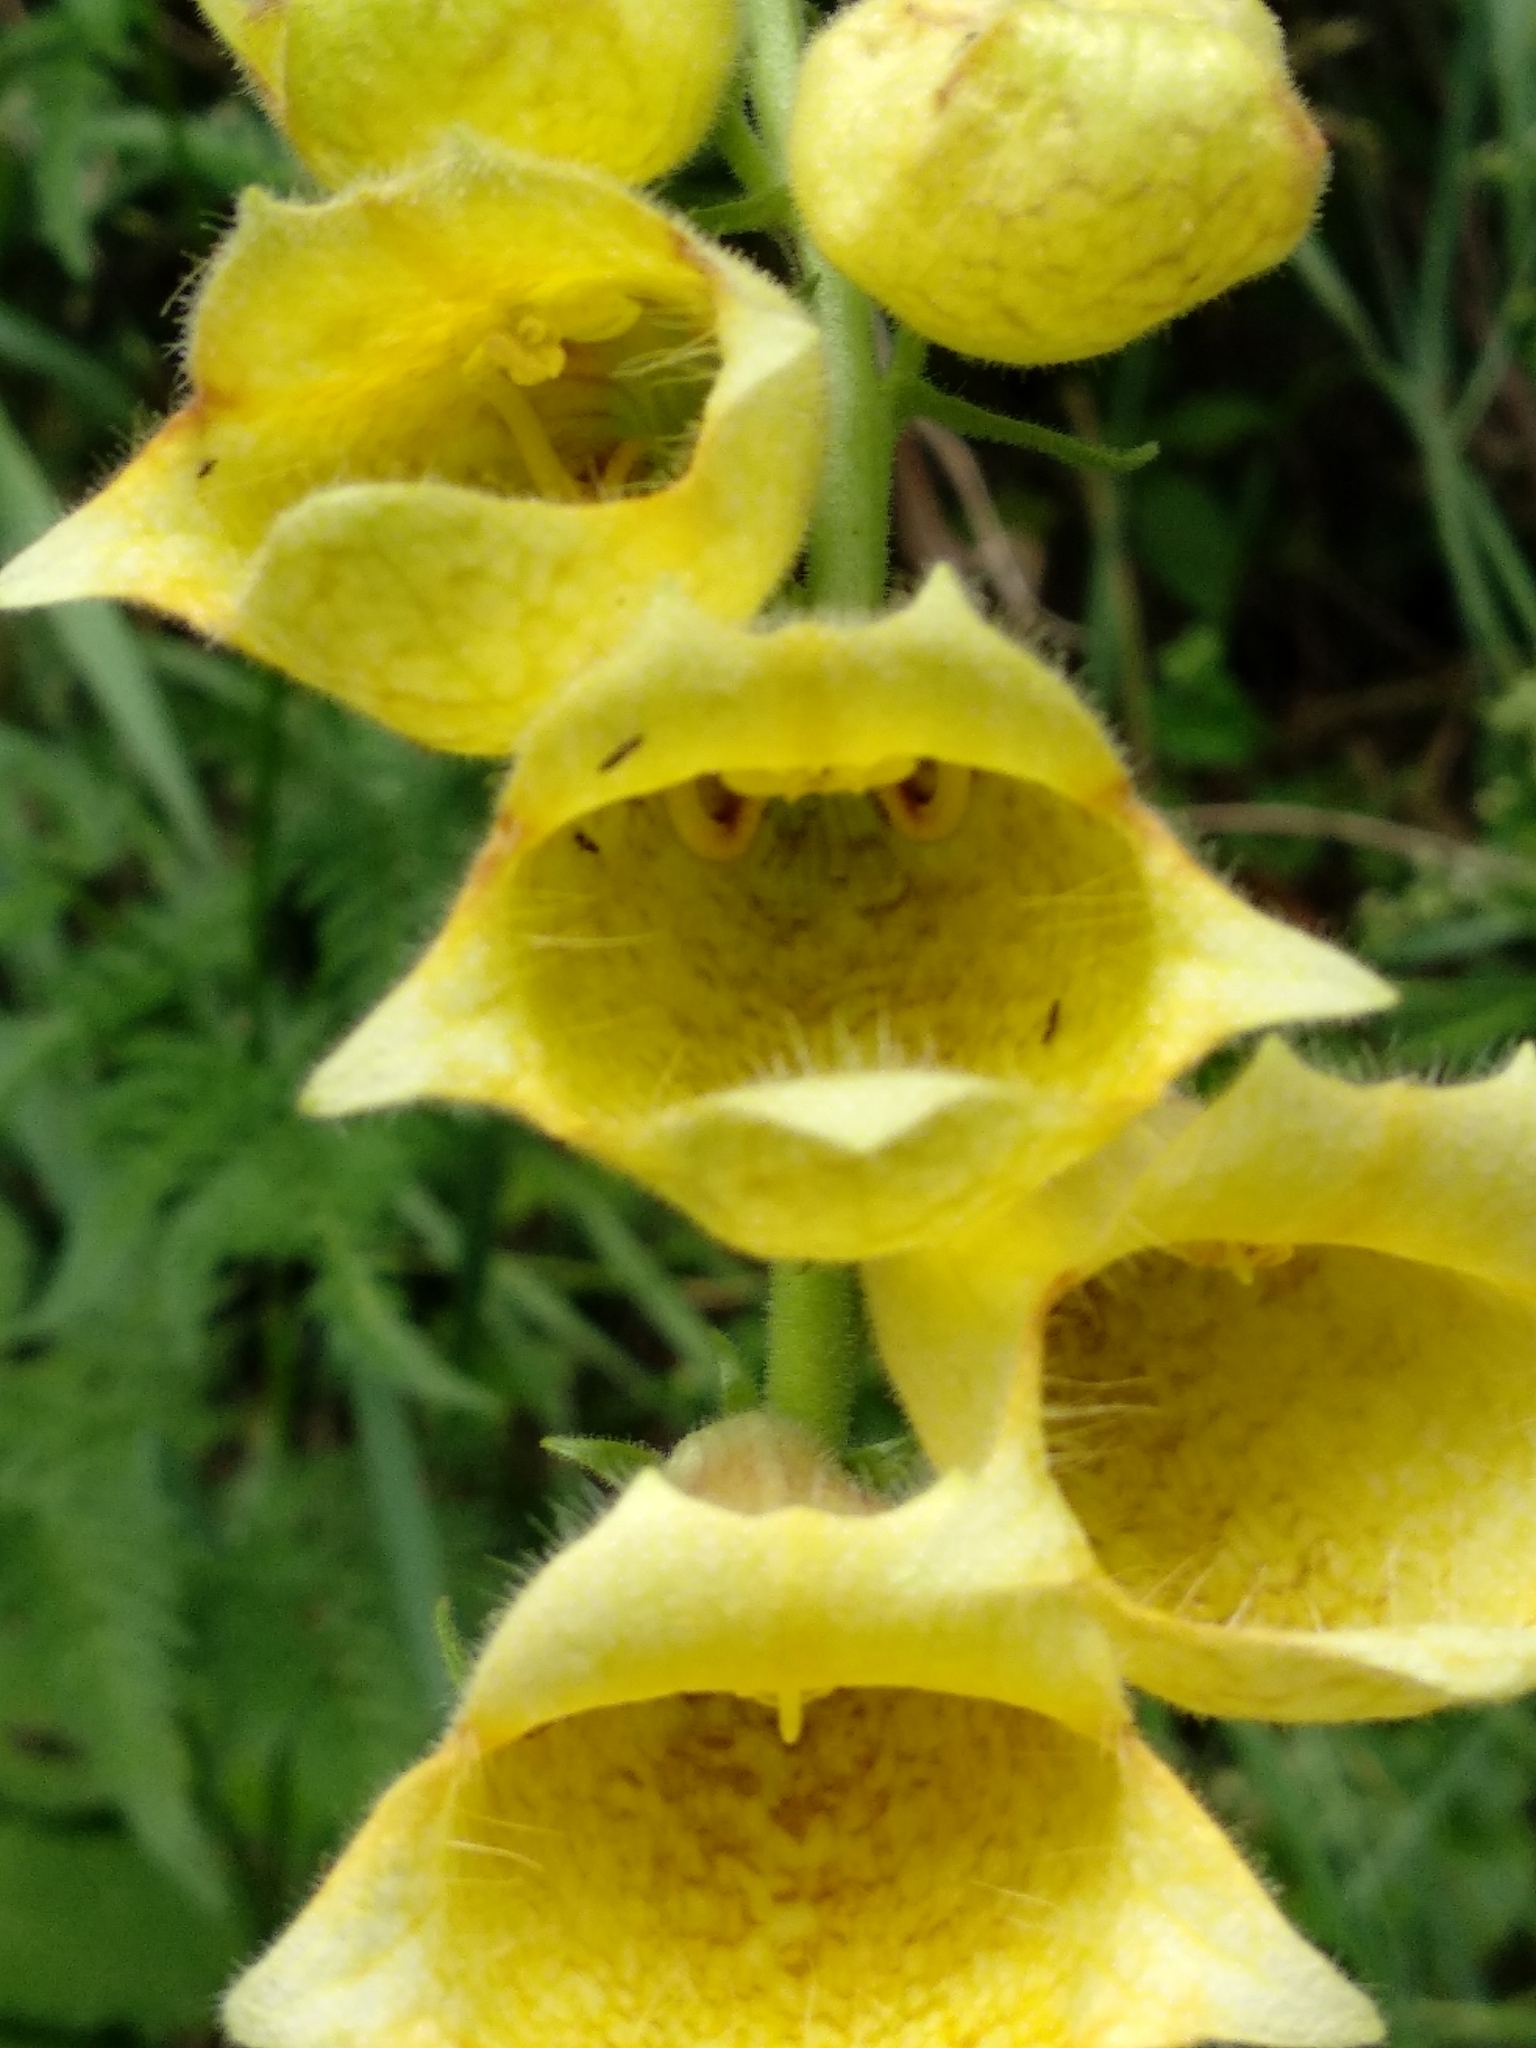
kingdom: Plantae
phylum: Tracheophyta
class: Magnoliopsida
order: Lamiales
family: Plantaginaceae
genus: Digitalis
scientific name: Digitalis grandiflora
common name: Yellow foxglove
